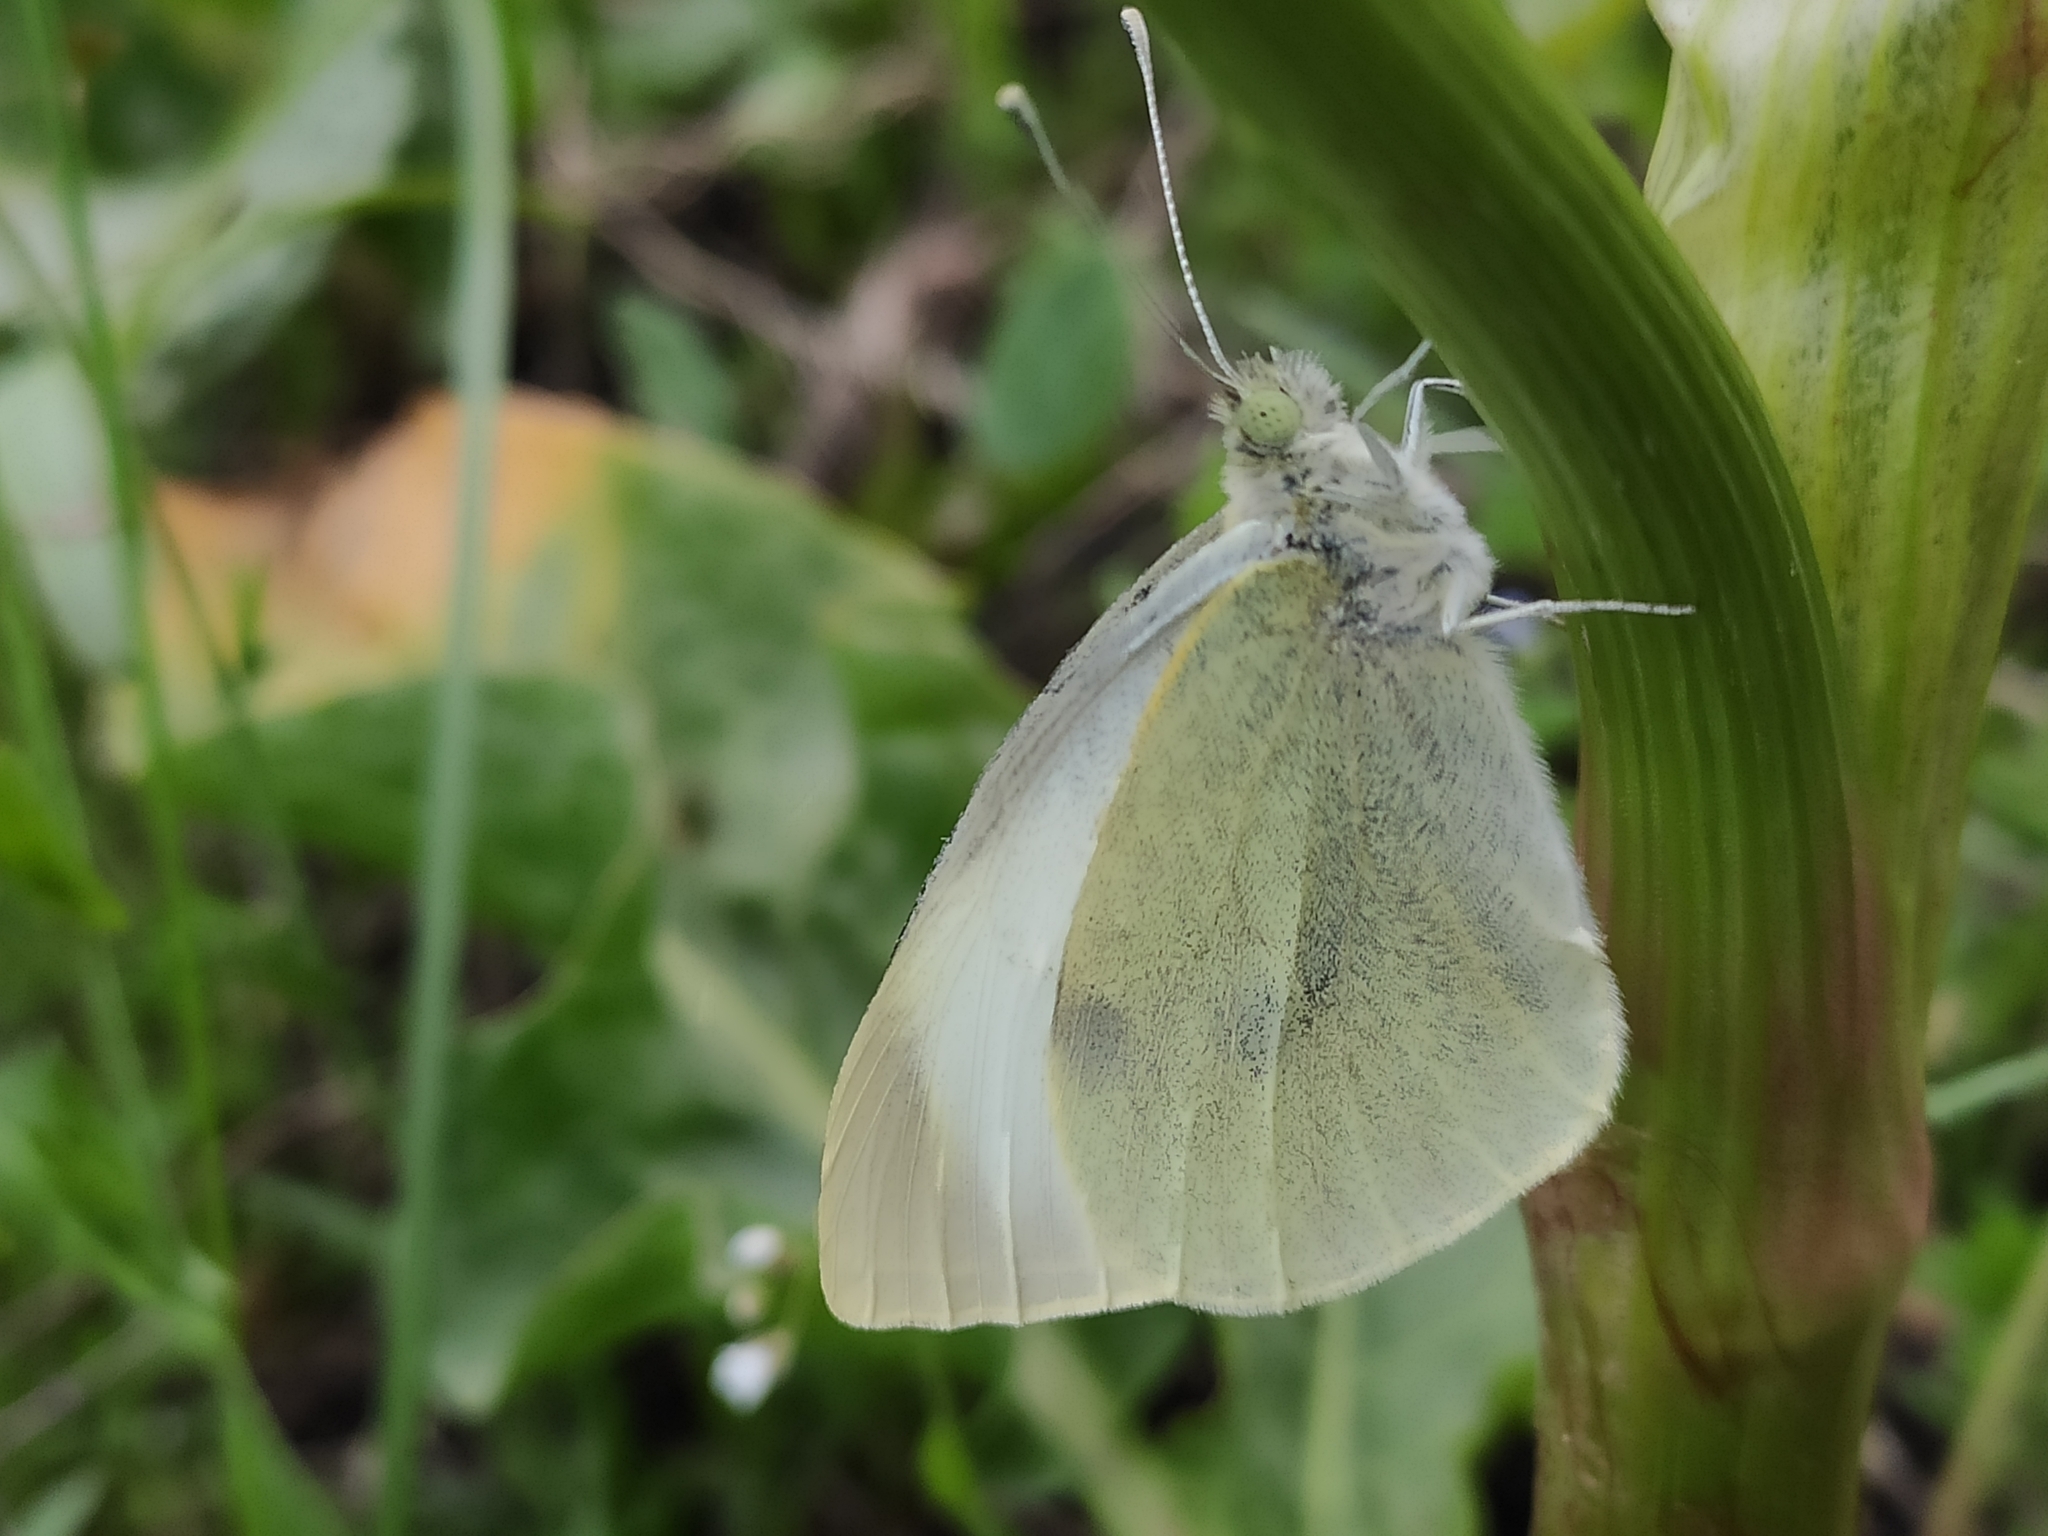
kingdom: Animalia
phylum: Arthropoda
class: Insecta
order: Lepidoptera
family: Pieridae
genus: Pieris
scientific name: Pieris rapae
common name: Small white
